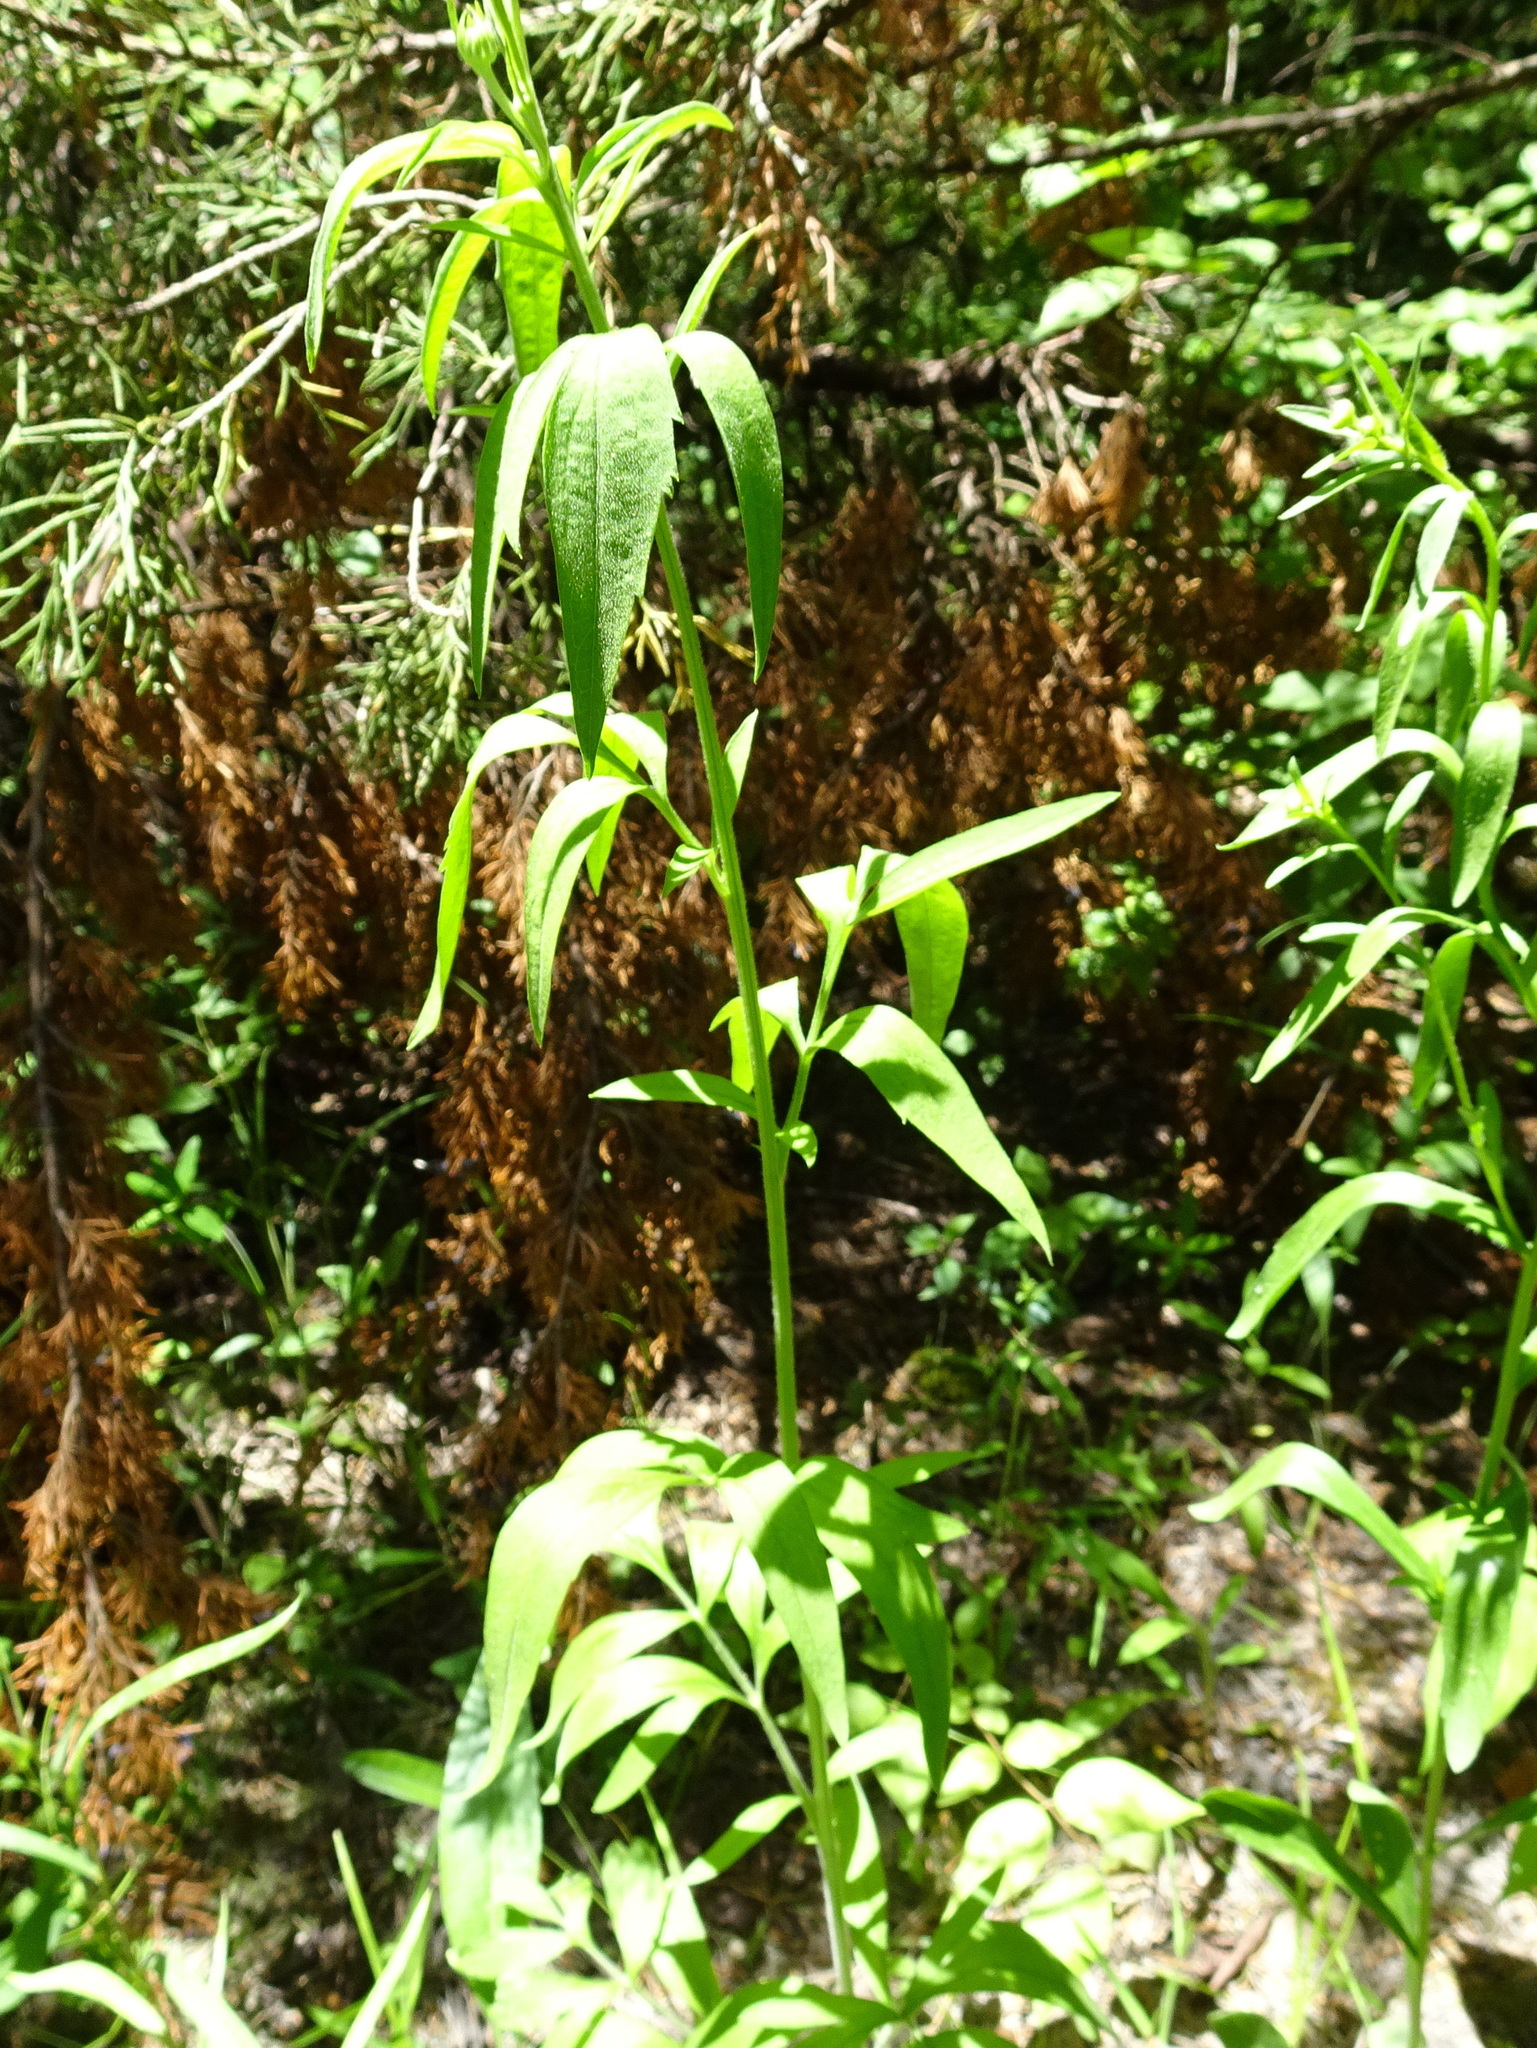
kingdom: Plantae
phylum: Tracheophyta
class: Magnoliopsida
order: Asterales
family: Asteraceae
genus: Rudbeckia
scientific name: Rudbeckia laciniata
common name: Coneflower
